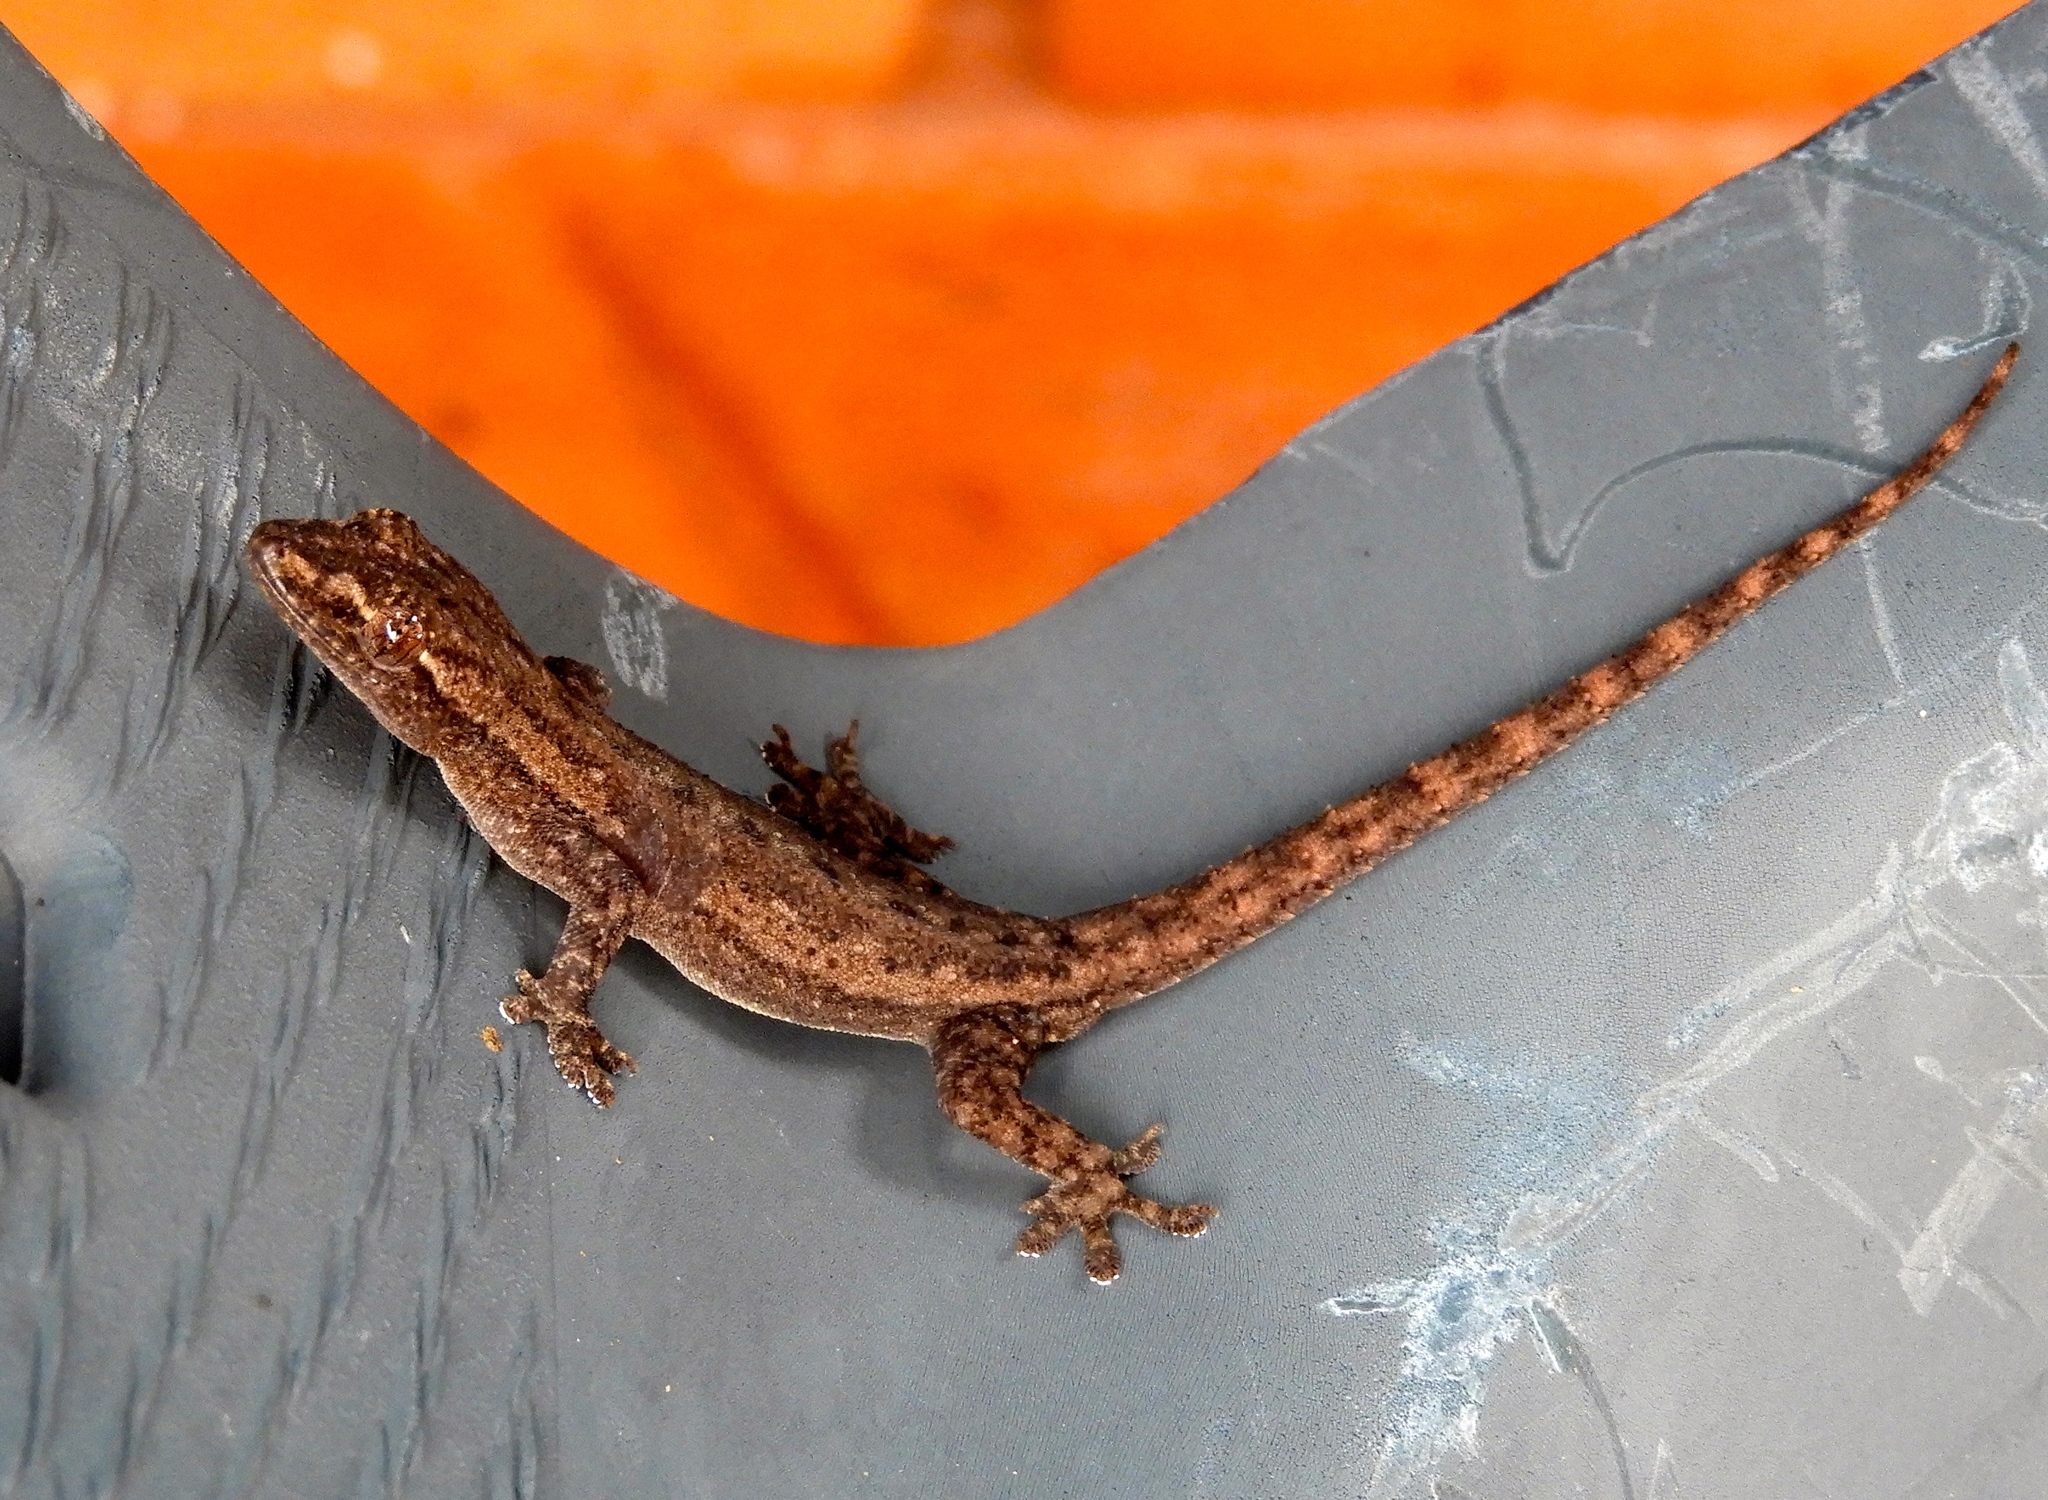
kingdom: Animalia
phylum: Chordata
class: Squamata
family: Gekkonidae
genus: Hemidactylus
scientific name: Hemidactylus frenatus
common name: Common house gecko
